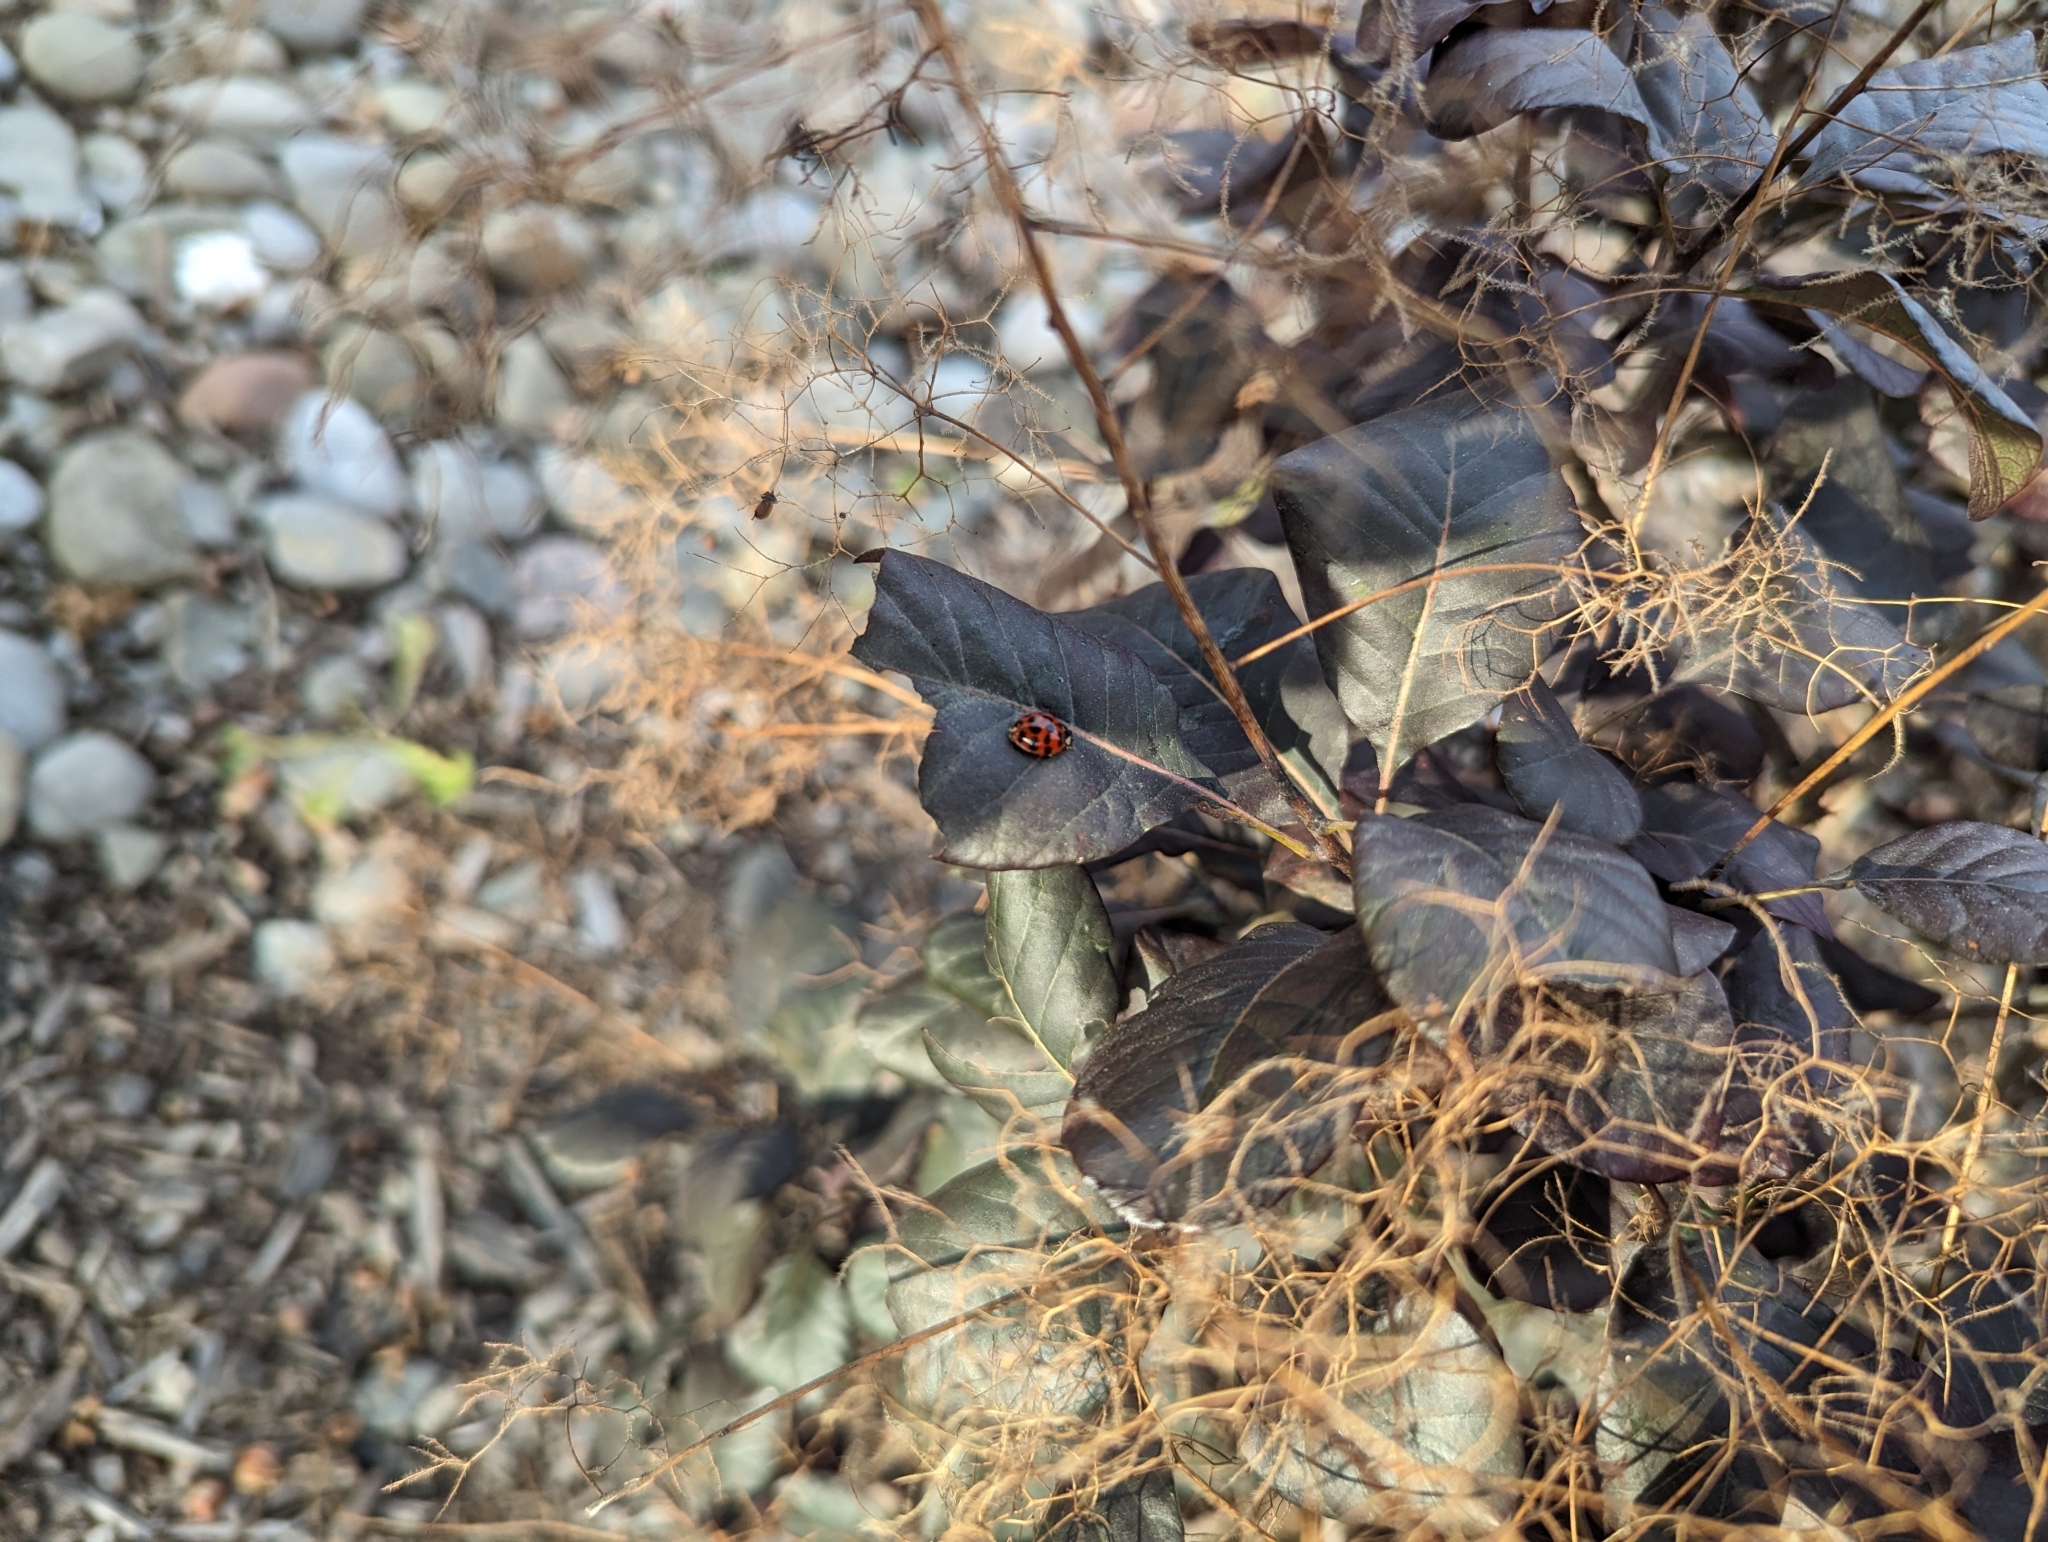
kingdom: Animalia
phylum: Arthropoda
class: Insecta
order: Coleoptera
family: Coccinellidae
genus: Harmonia
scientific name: Harmonia axyridis
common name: Harlequin ladybird
